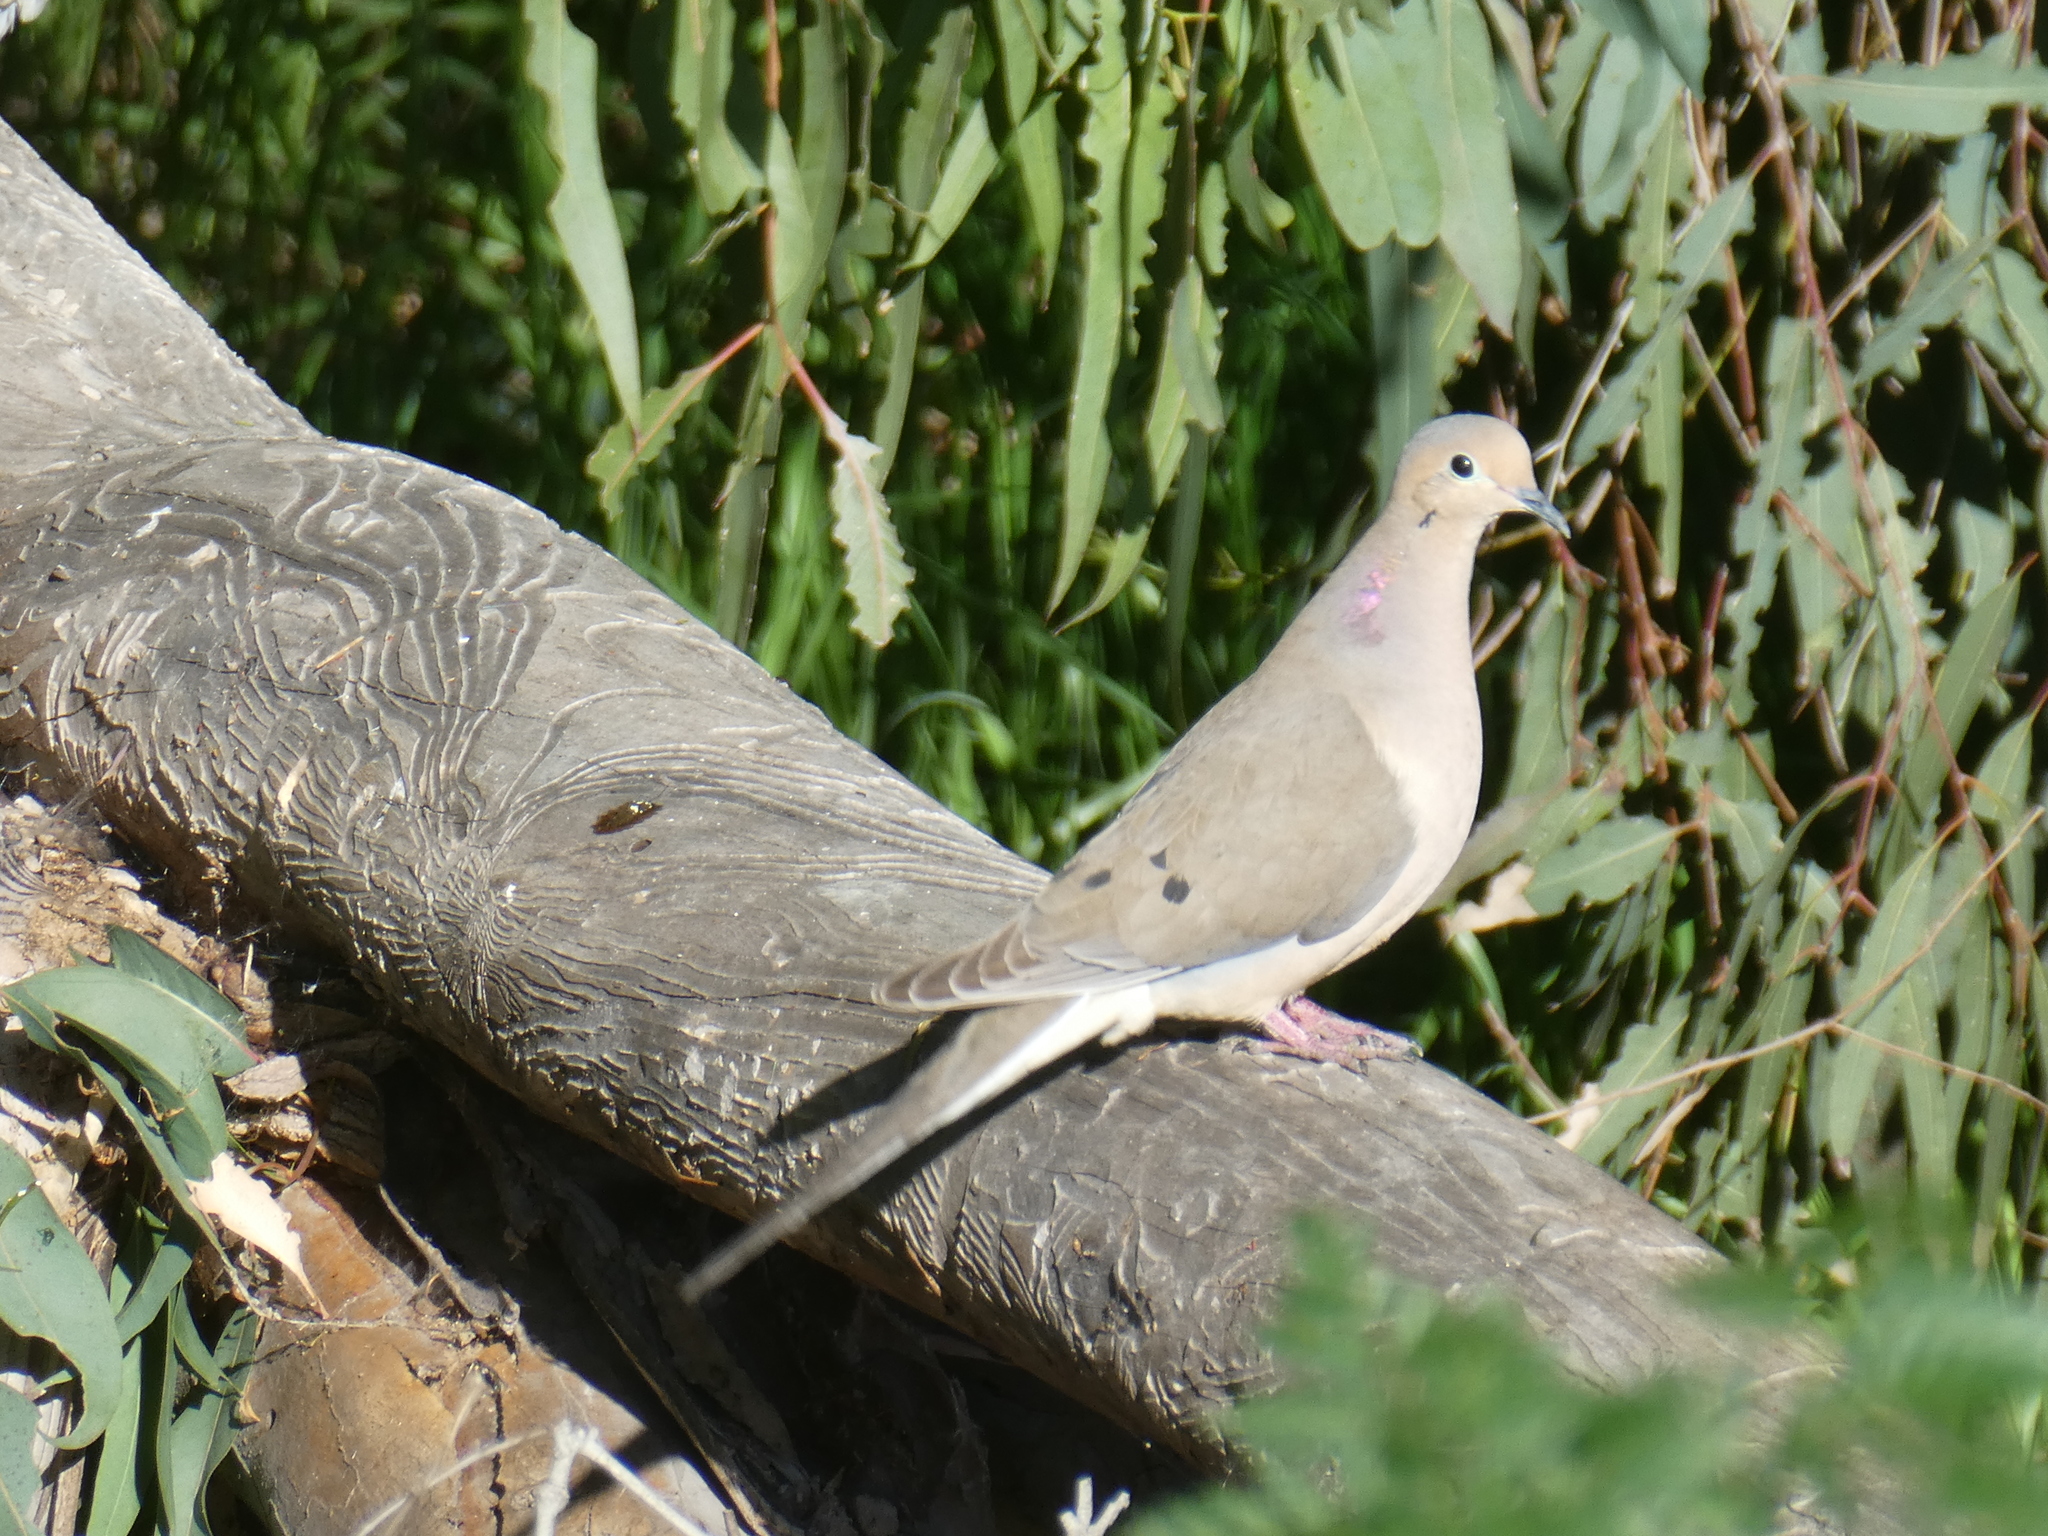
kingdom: Animalia
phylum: Chordata
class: Aves
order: Columbiformes
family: Columbidae
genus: Zenaida
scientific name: Zenaida macroura
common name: Mourning dove
